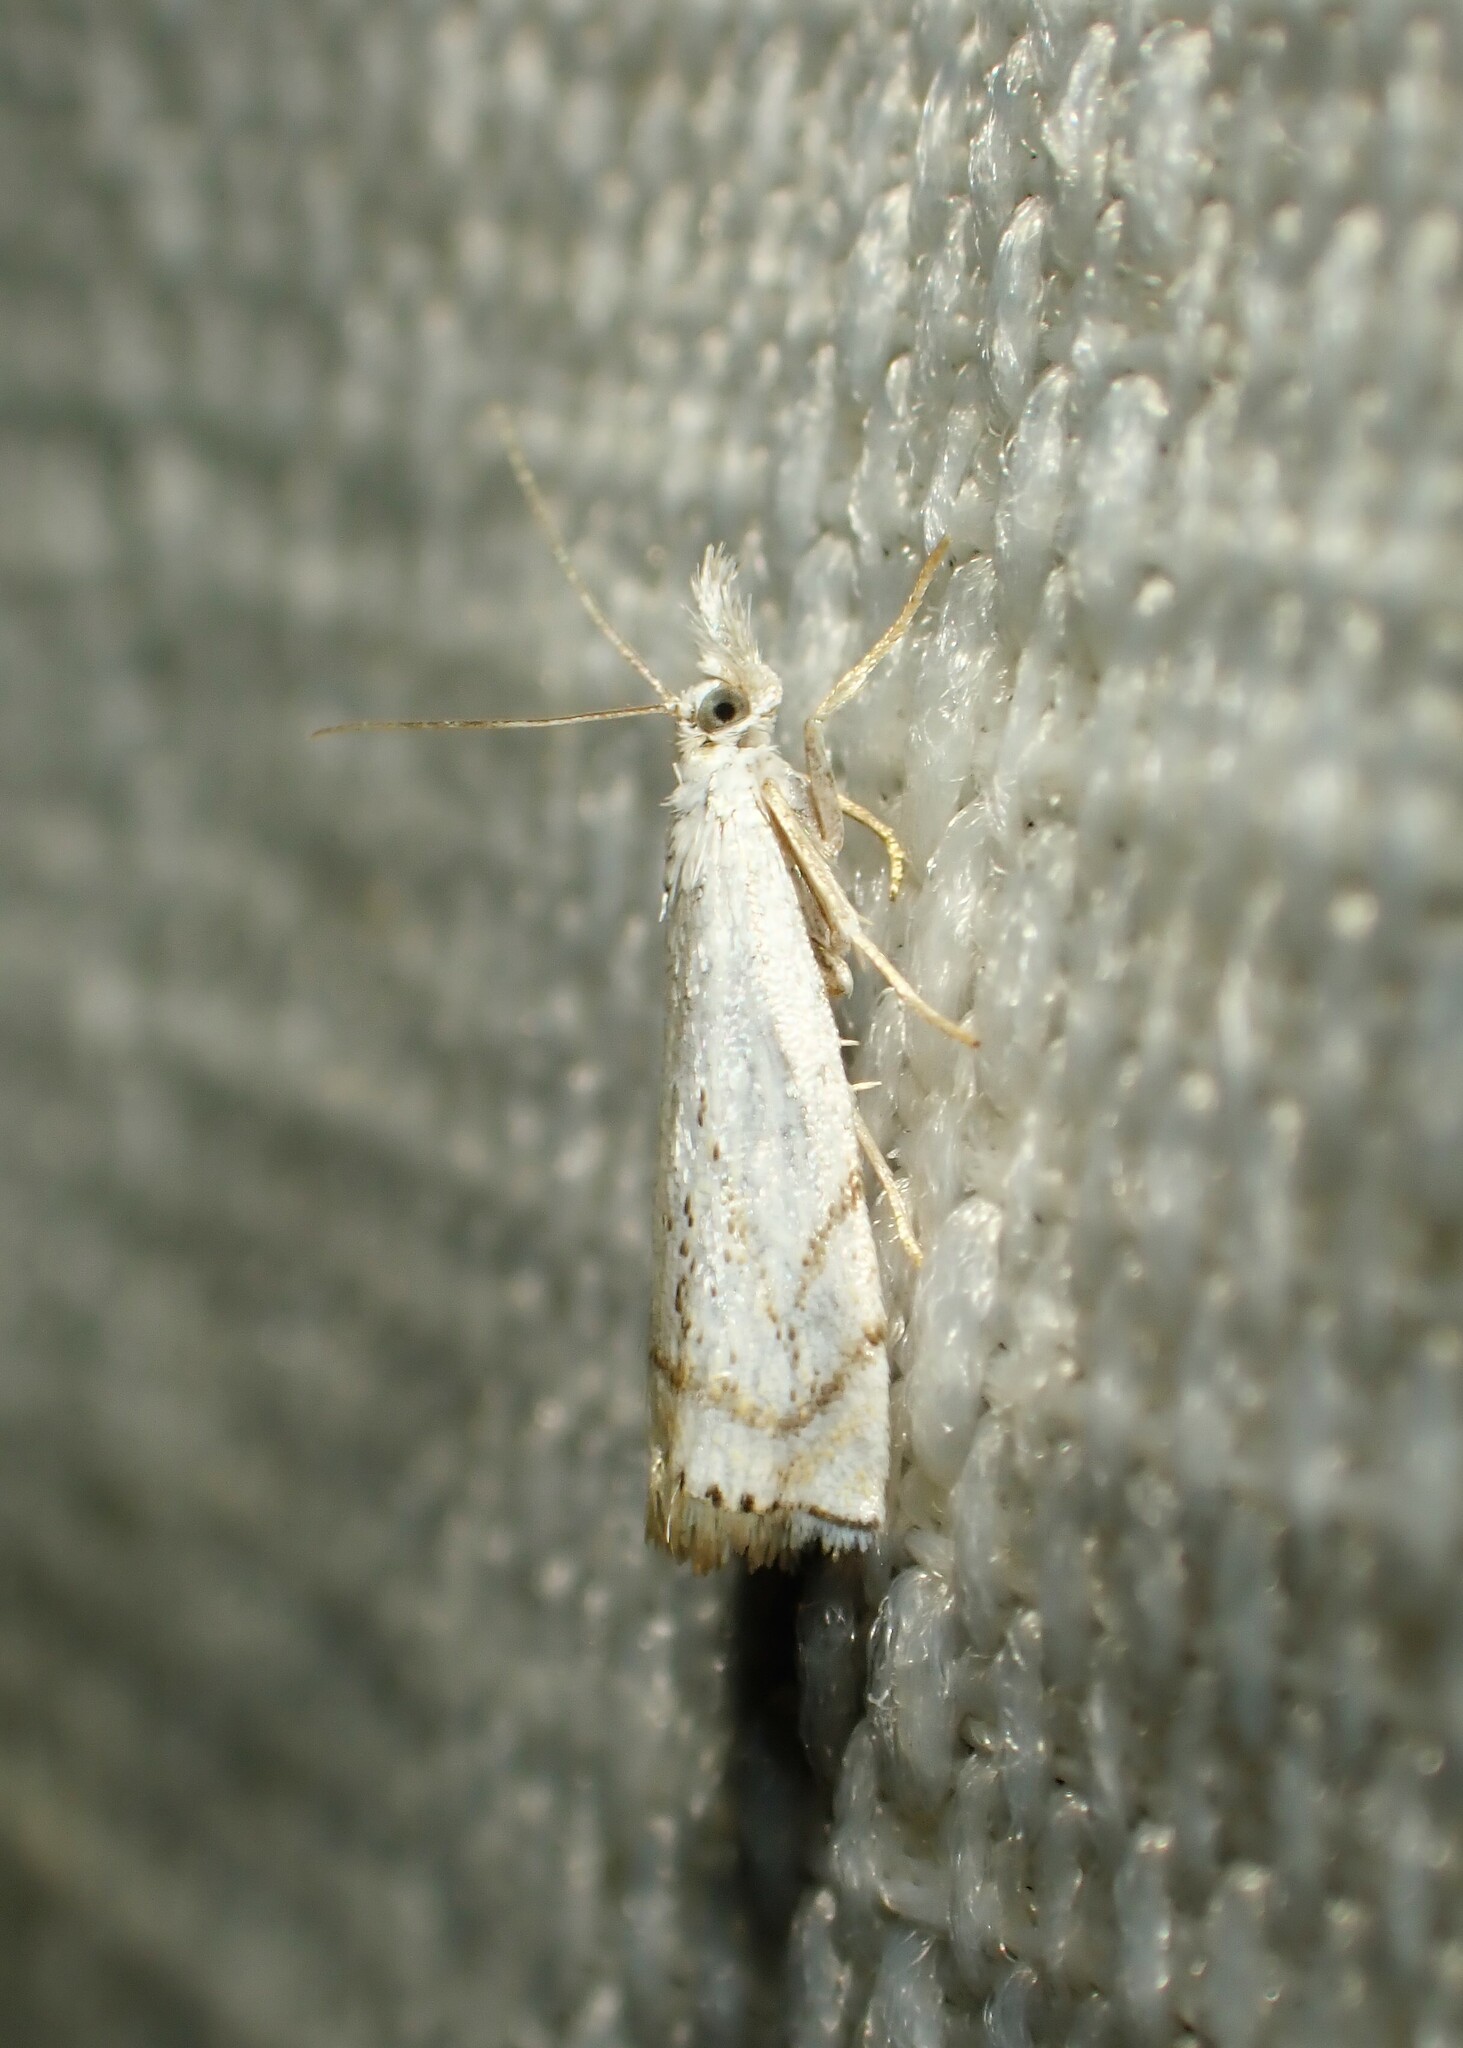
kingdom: Animalia
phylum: Arthropoda
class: Insecta
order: Lepidoptera
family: Crambidae
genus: Crambus
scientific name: Crambus albellus
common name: Small white grass-veneer
